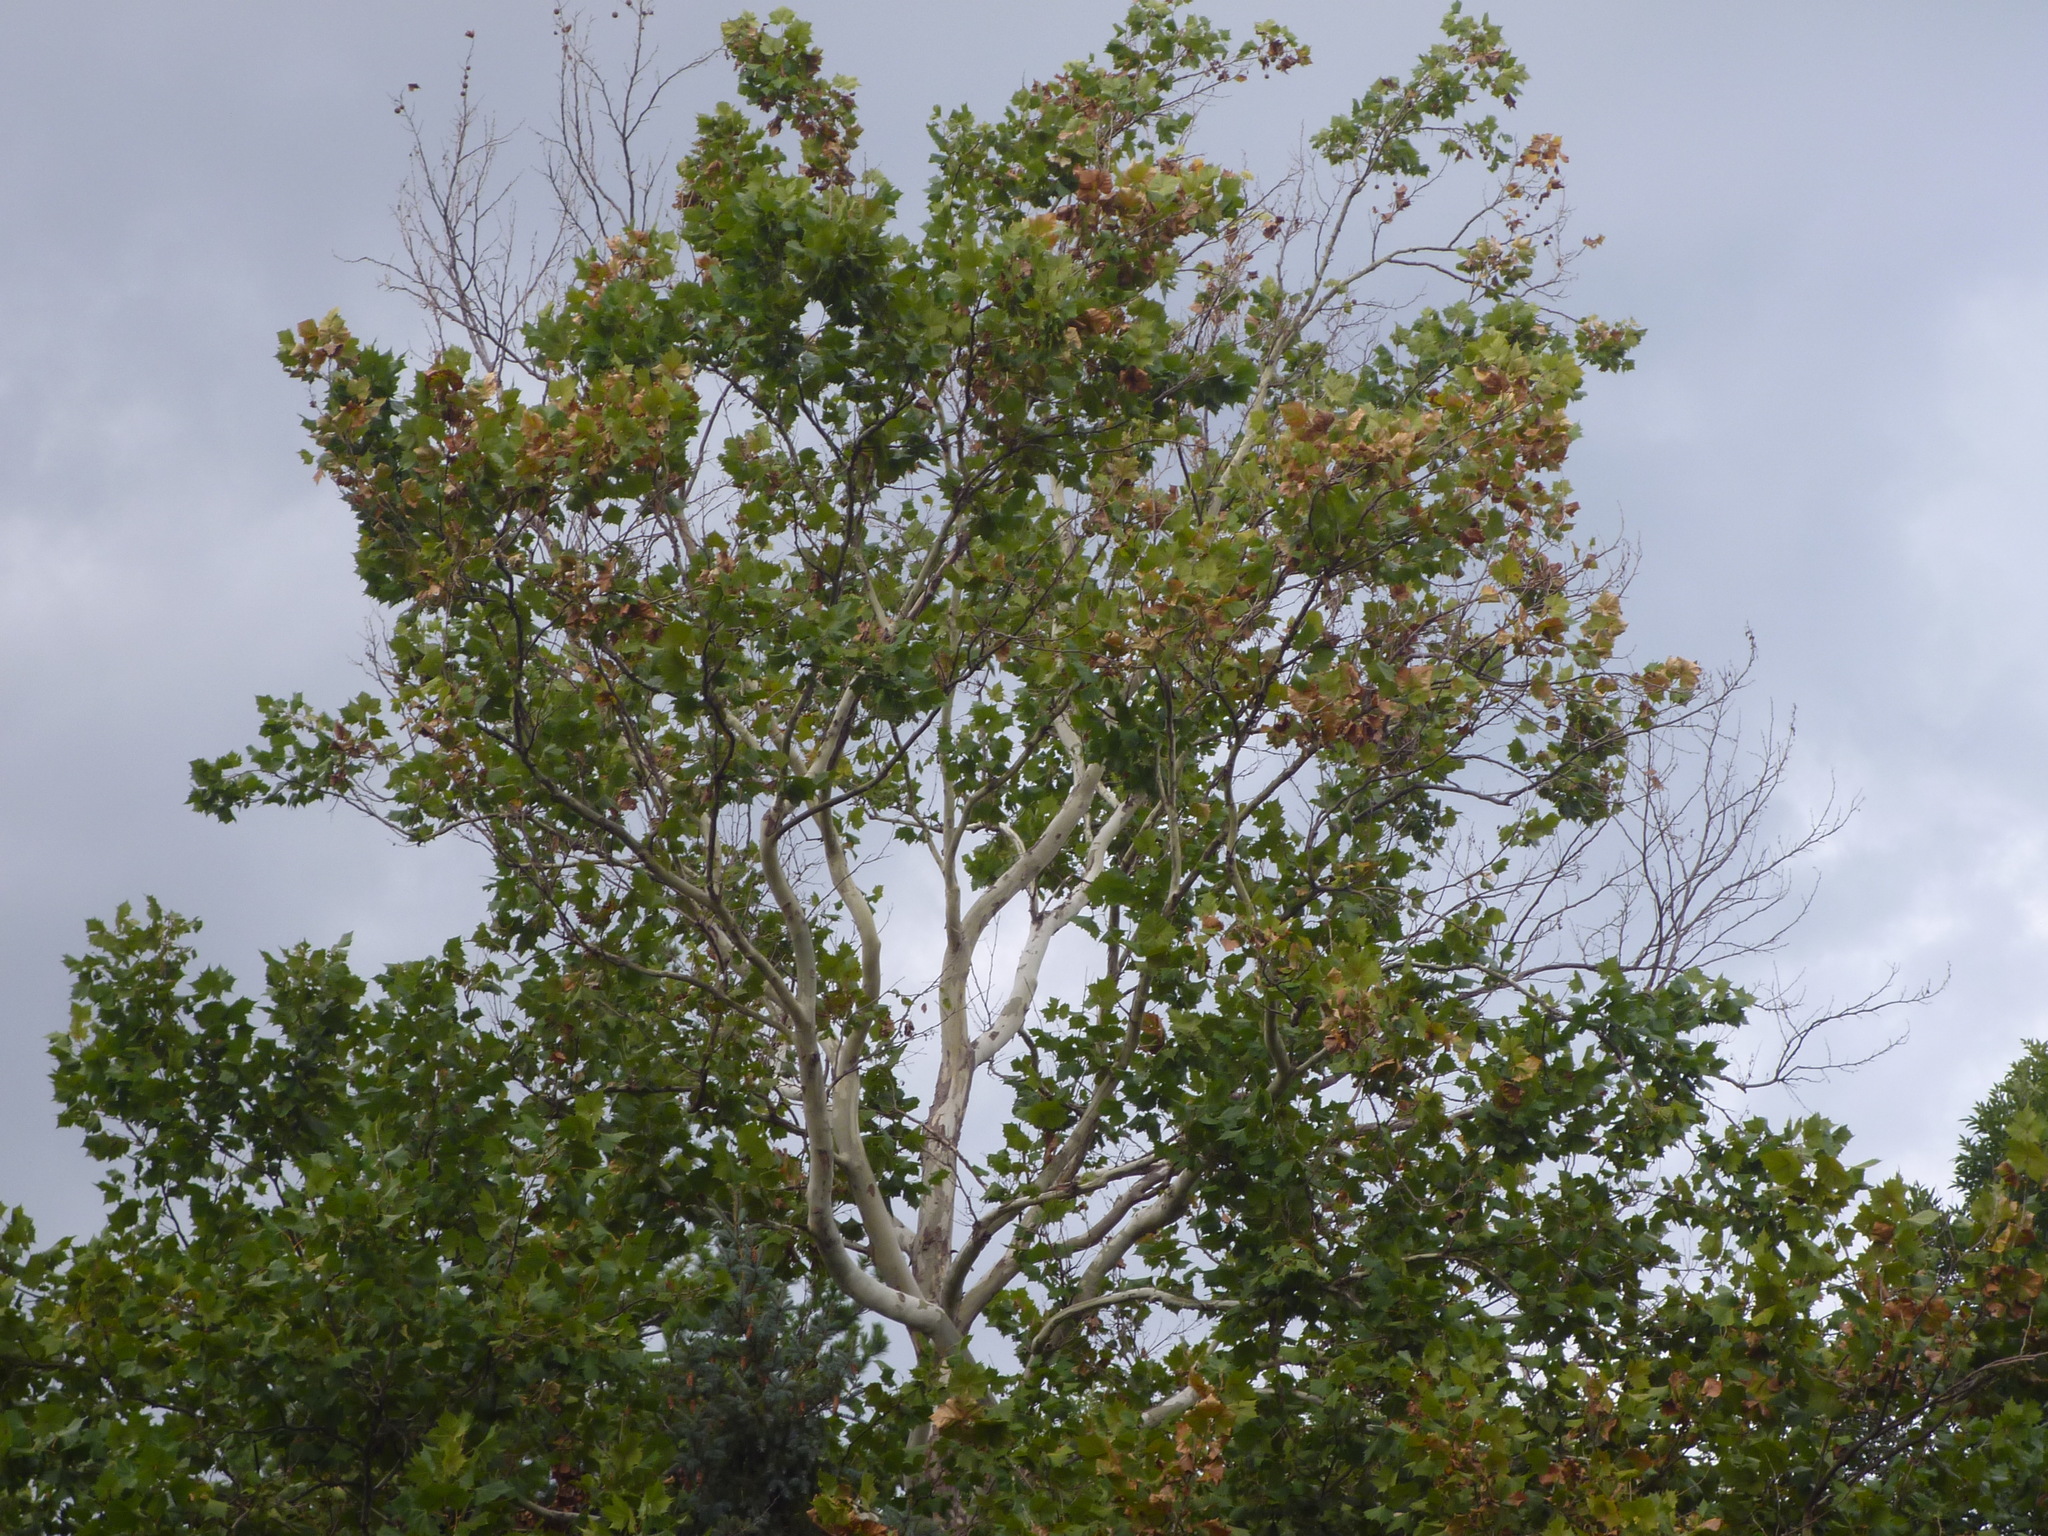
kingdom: Plantae
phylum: Tracheophyta
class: Magnoliopsida
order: Proteales
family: Platanaceae
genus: Platanus
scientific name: Platanus occidentalis
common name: American sycamore
